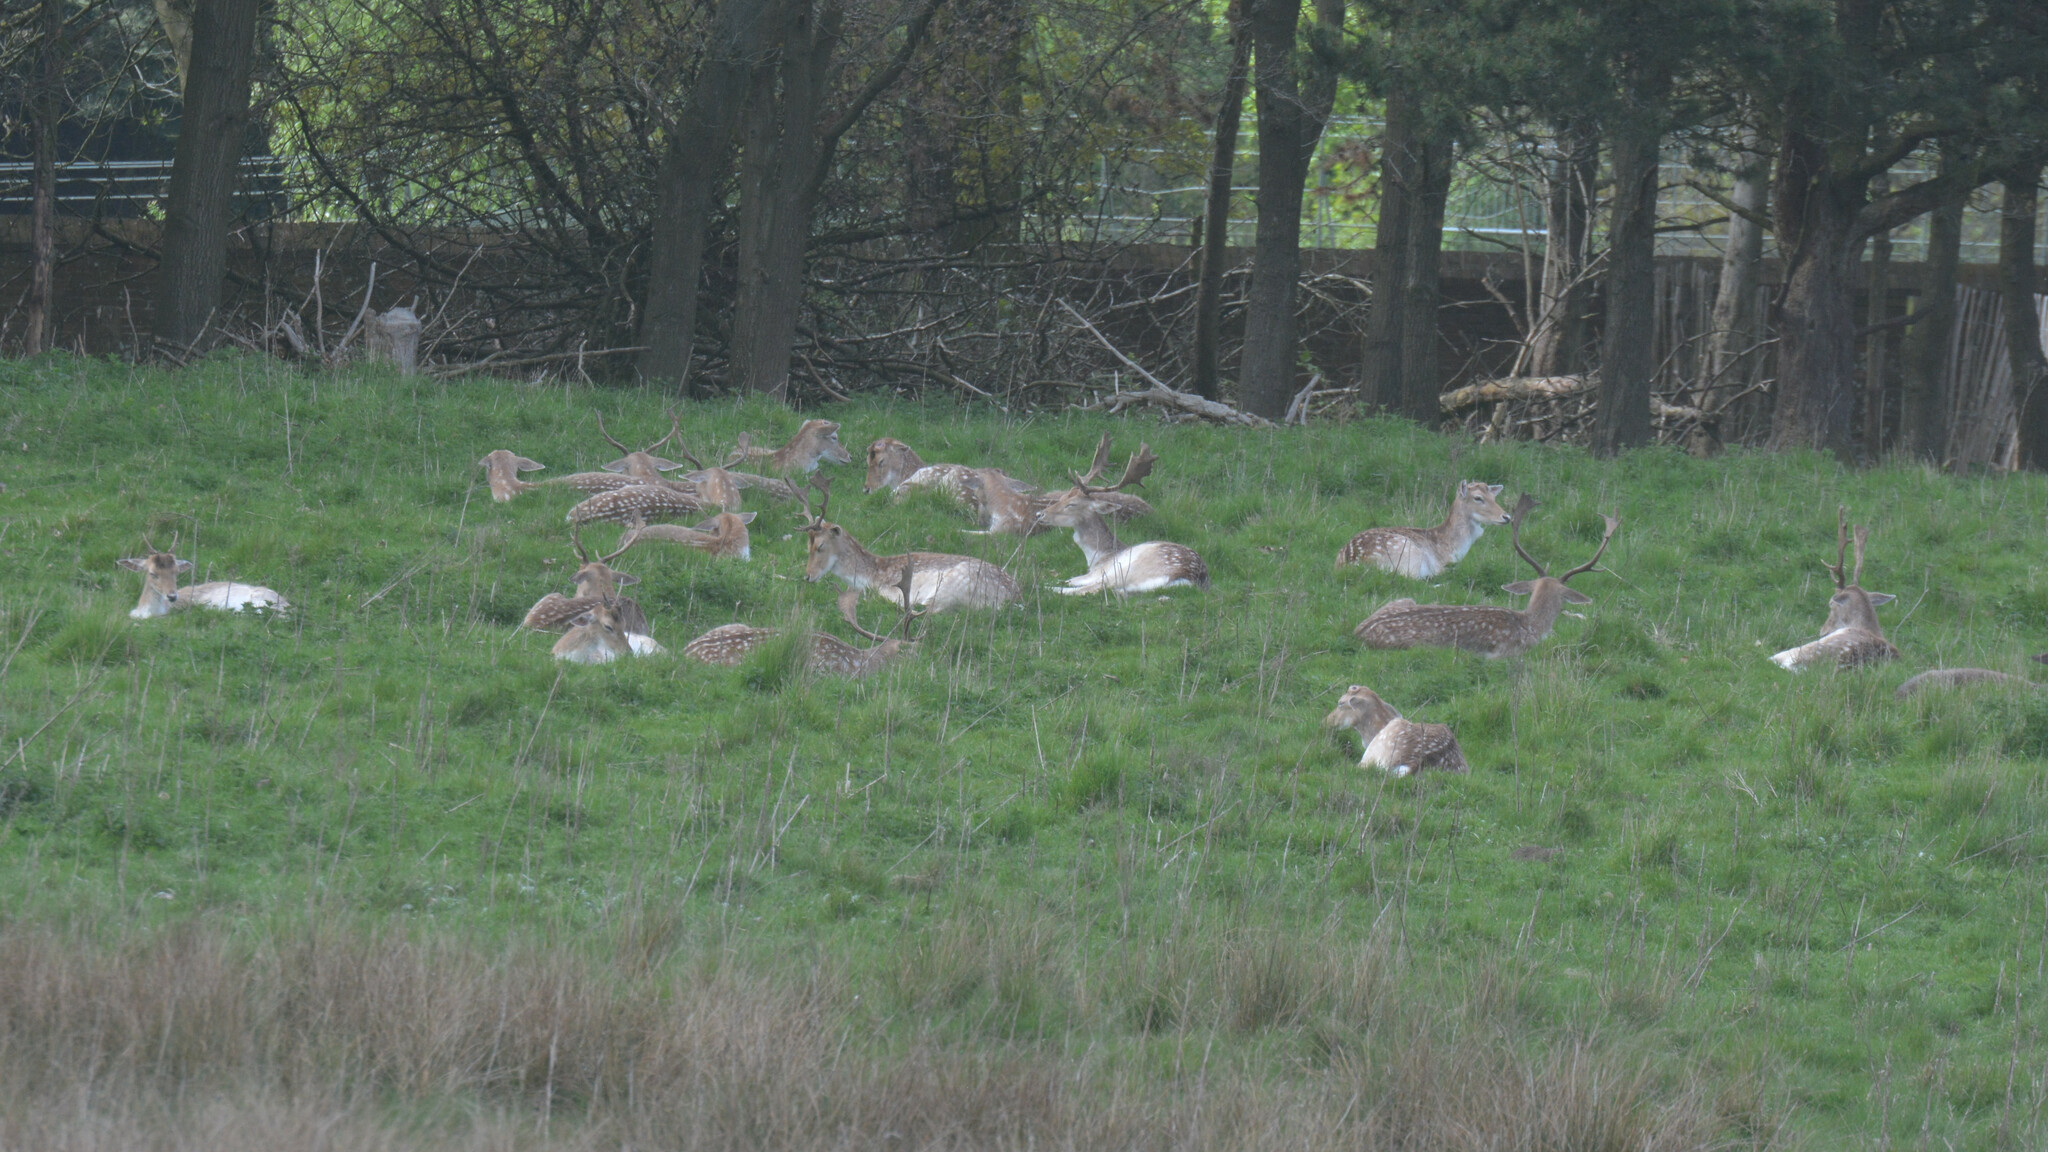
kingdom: Animalia
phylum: Chordata
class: Mammalia
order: Artiodactyla
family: Cervidae
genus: Dama
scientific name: Dama dama
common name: Fallow deer
